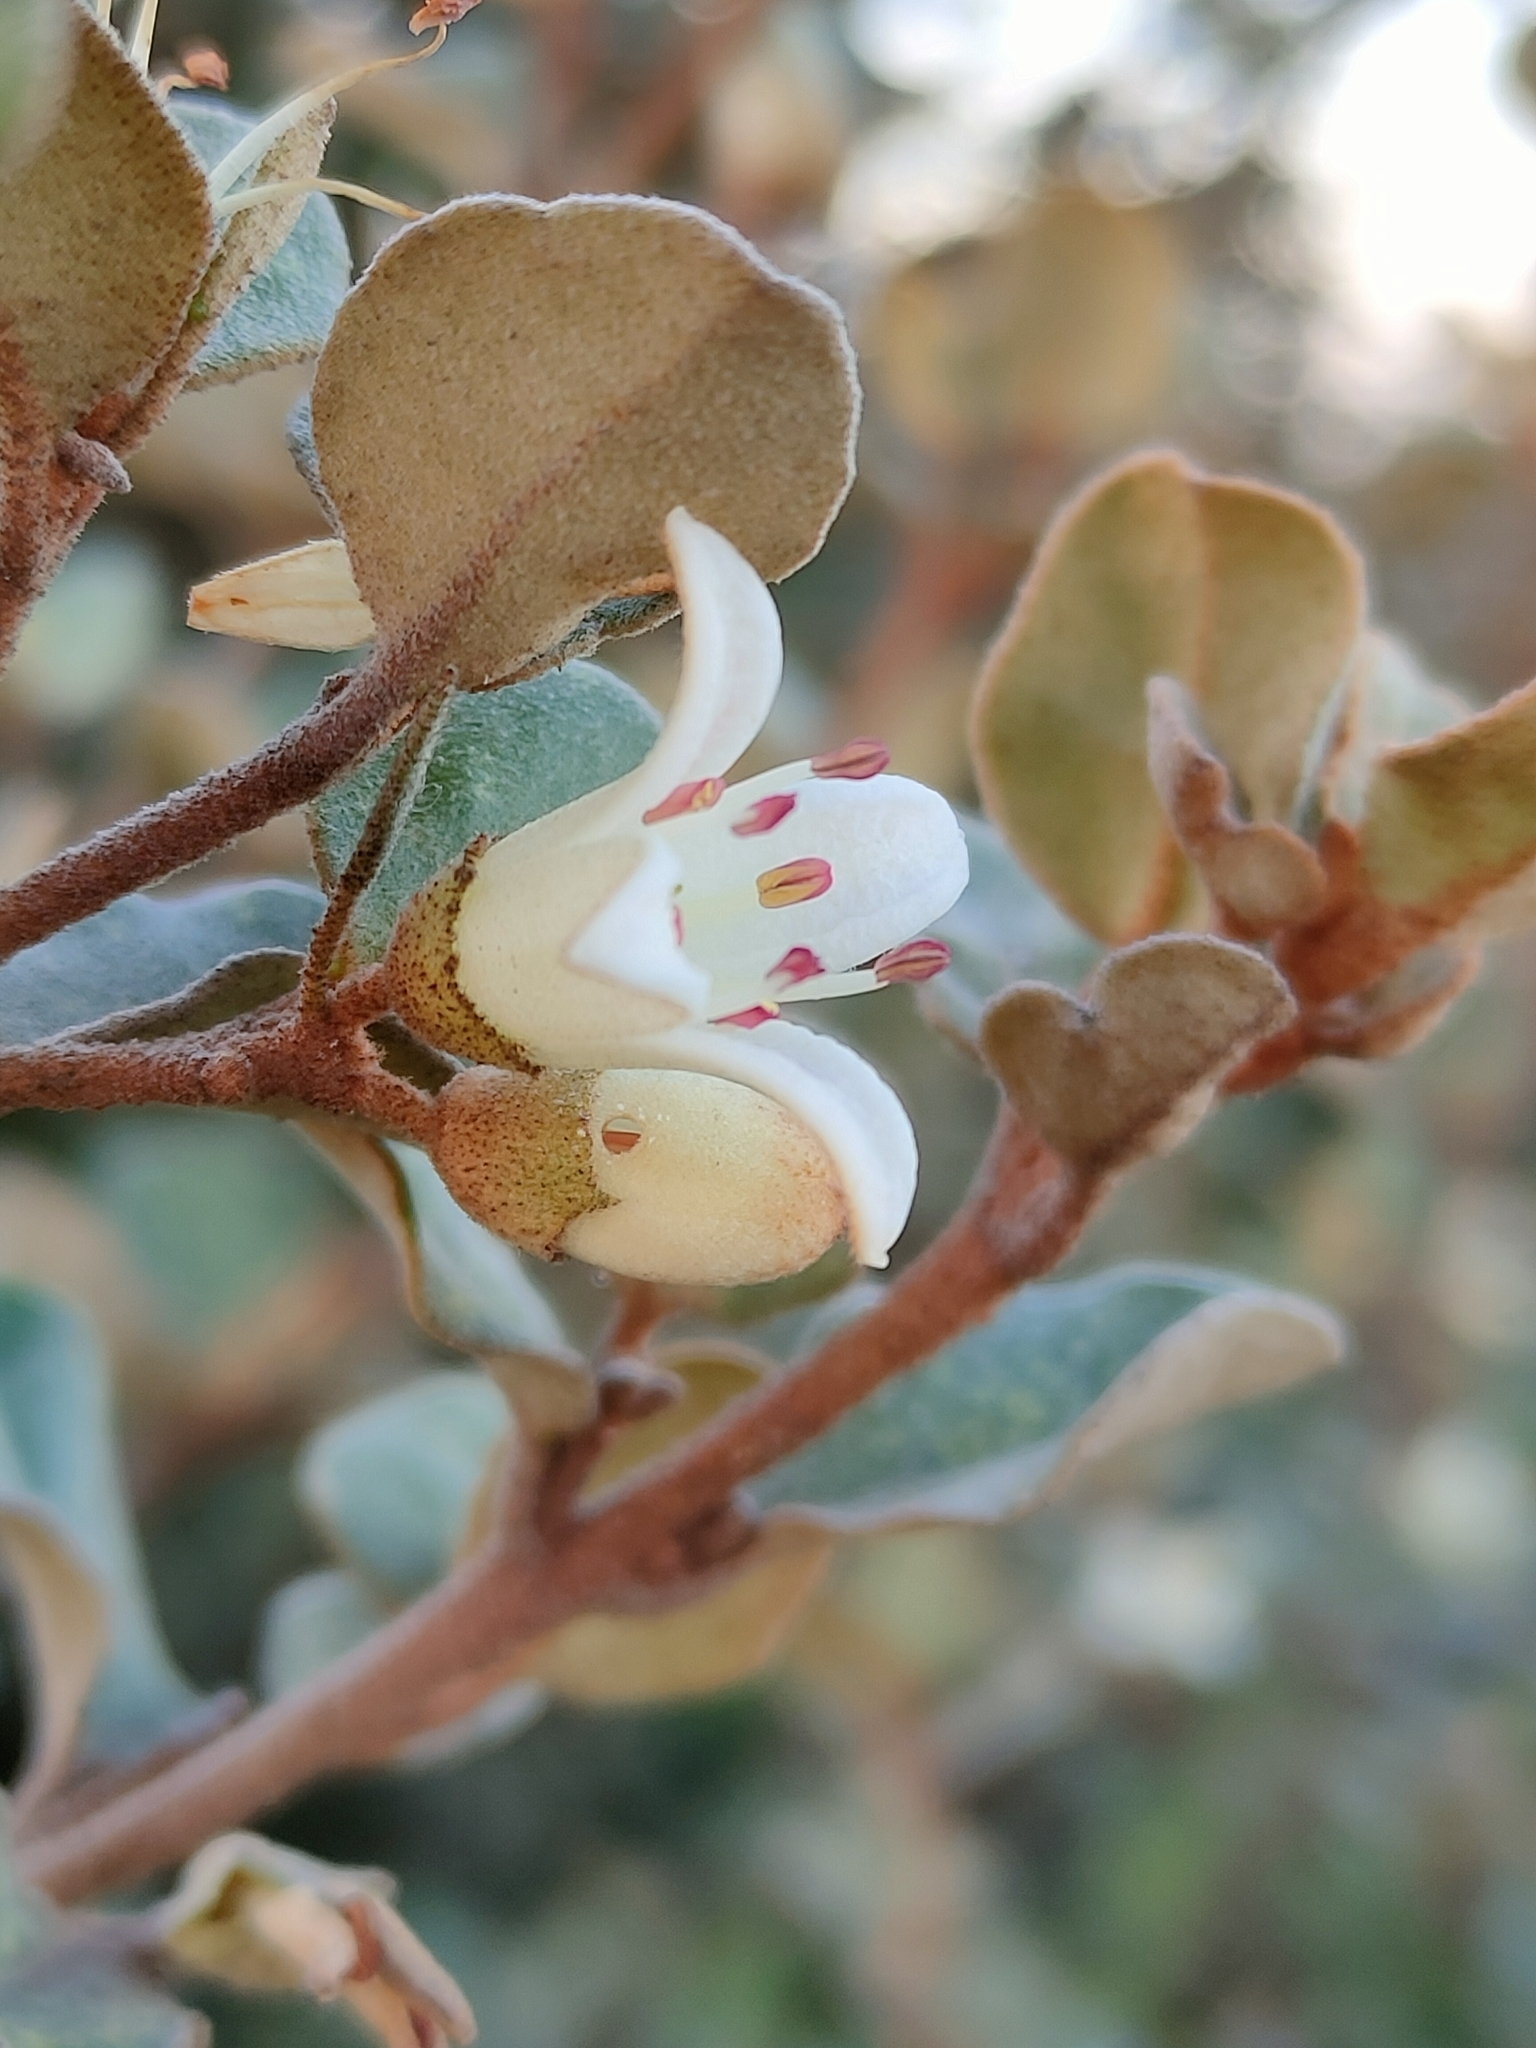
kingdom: Plantae
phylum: Tracheophyta
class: Magnoliopsida
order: Sapindales
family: Rutaceae
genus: Correa
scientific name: Correa alba
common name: White correa
